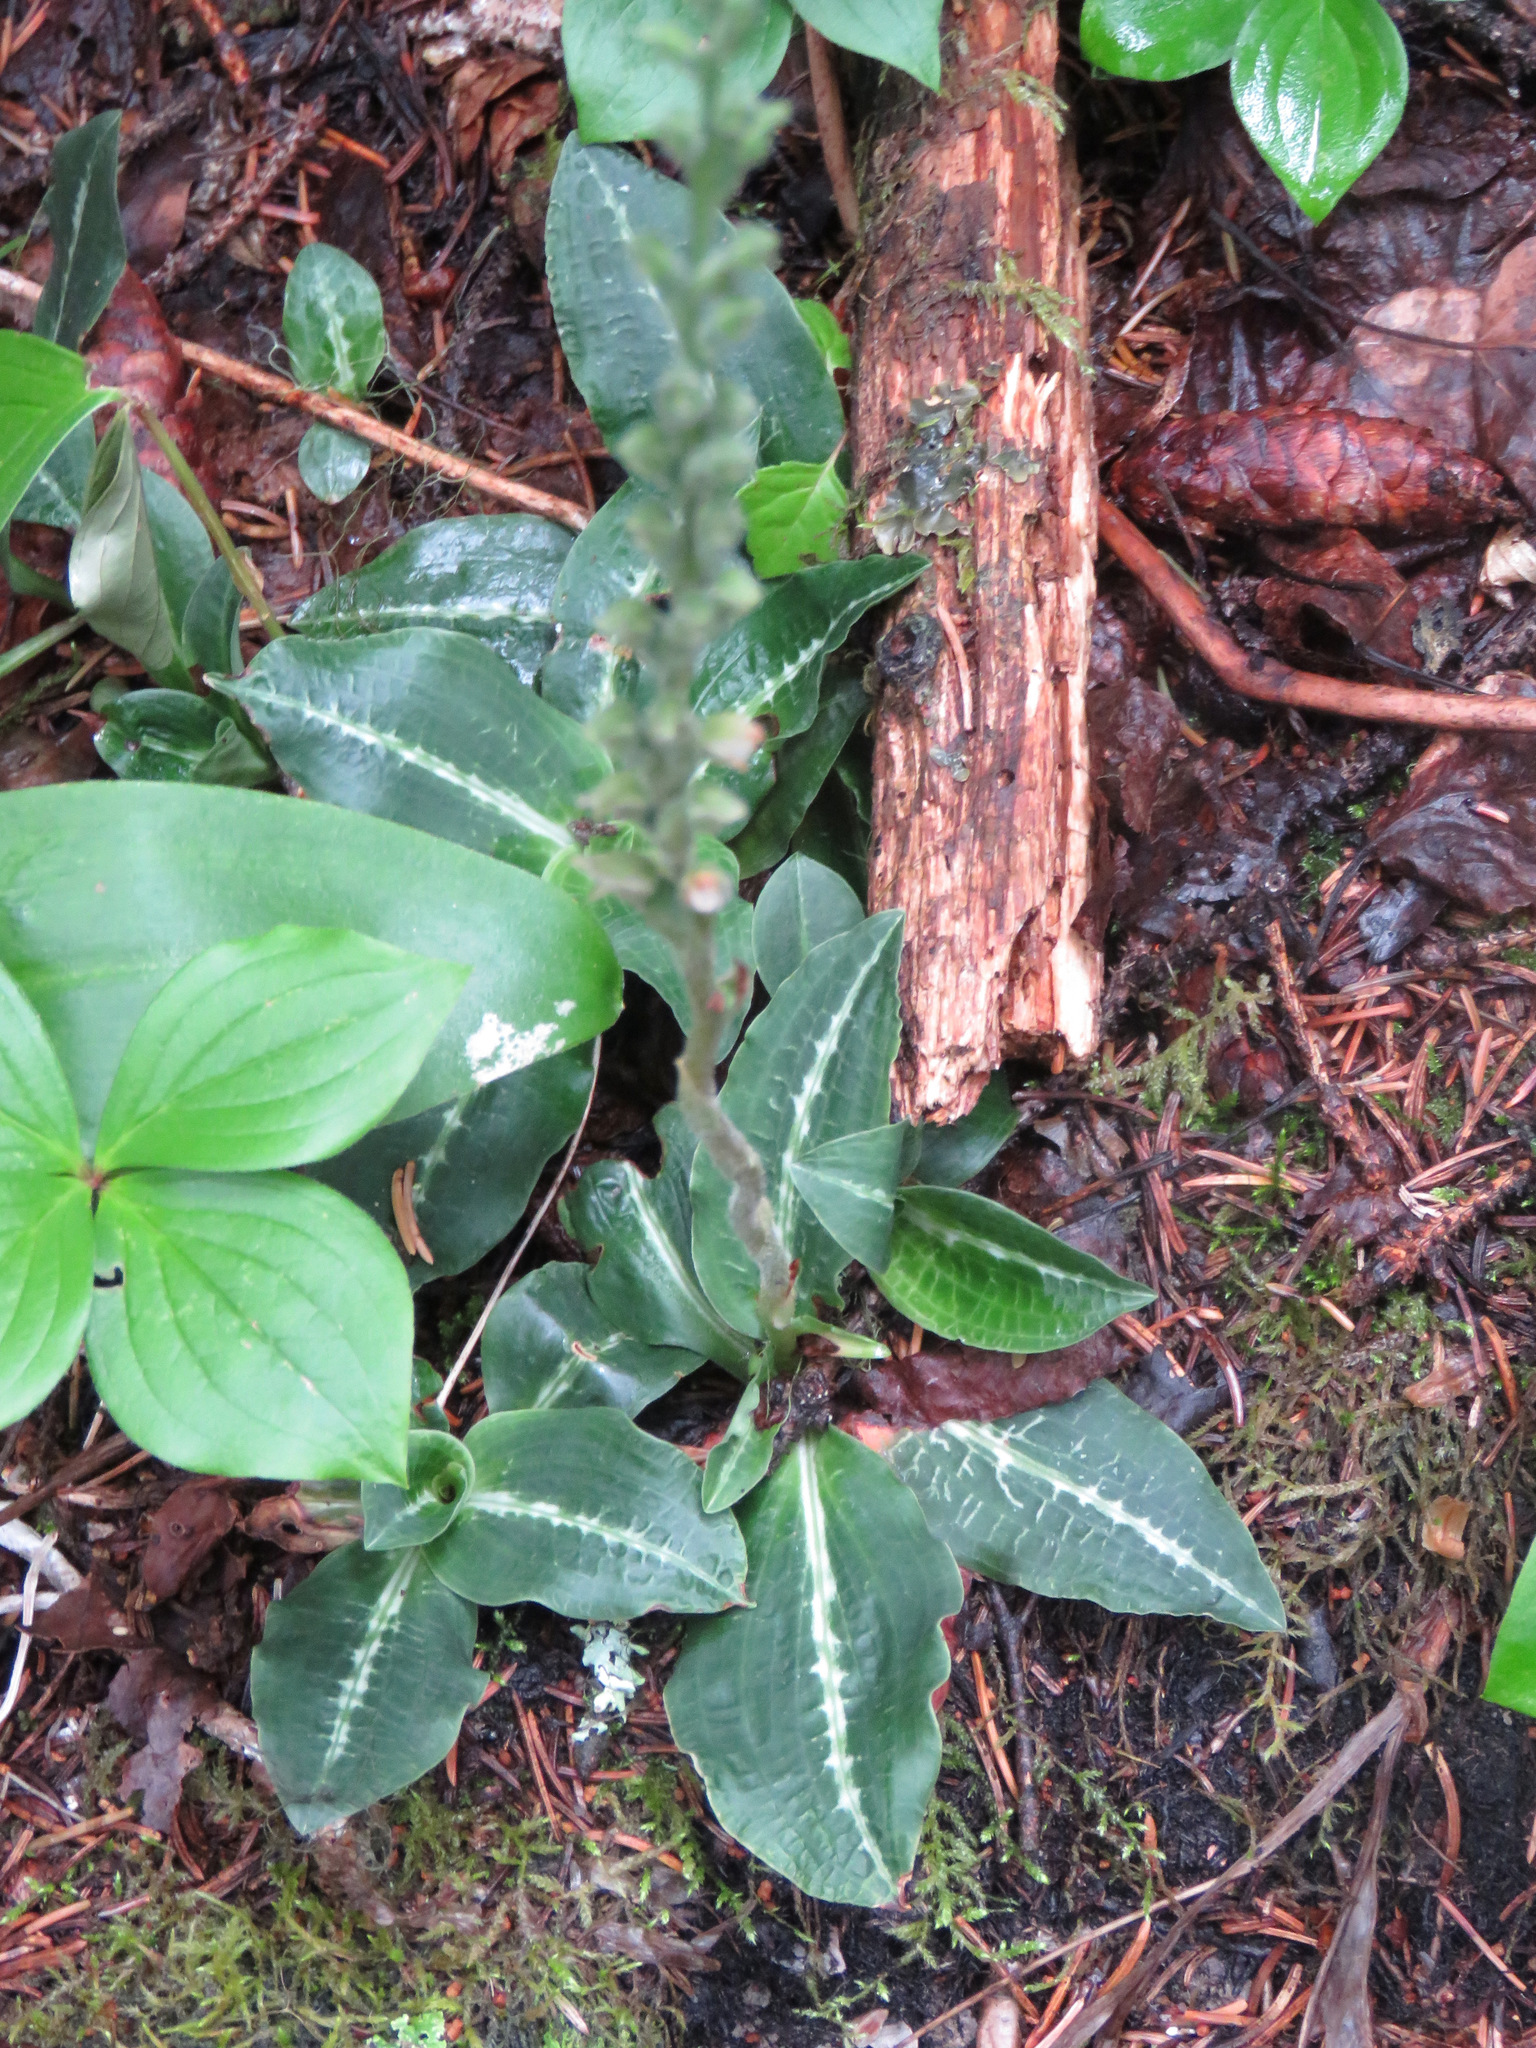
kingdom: Plantae
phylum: Tracheophyta
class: Liliopsida
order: Asparagales
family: Orchidaceae
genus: Goodyera
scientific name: Goodyera oblongifolia
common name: Giant rattlesnake-plantain
